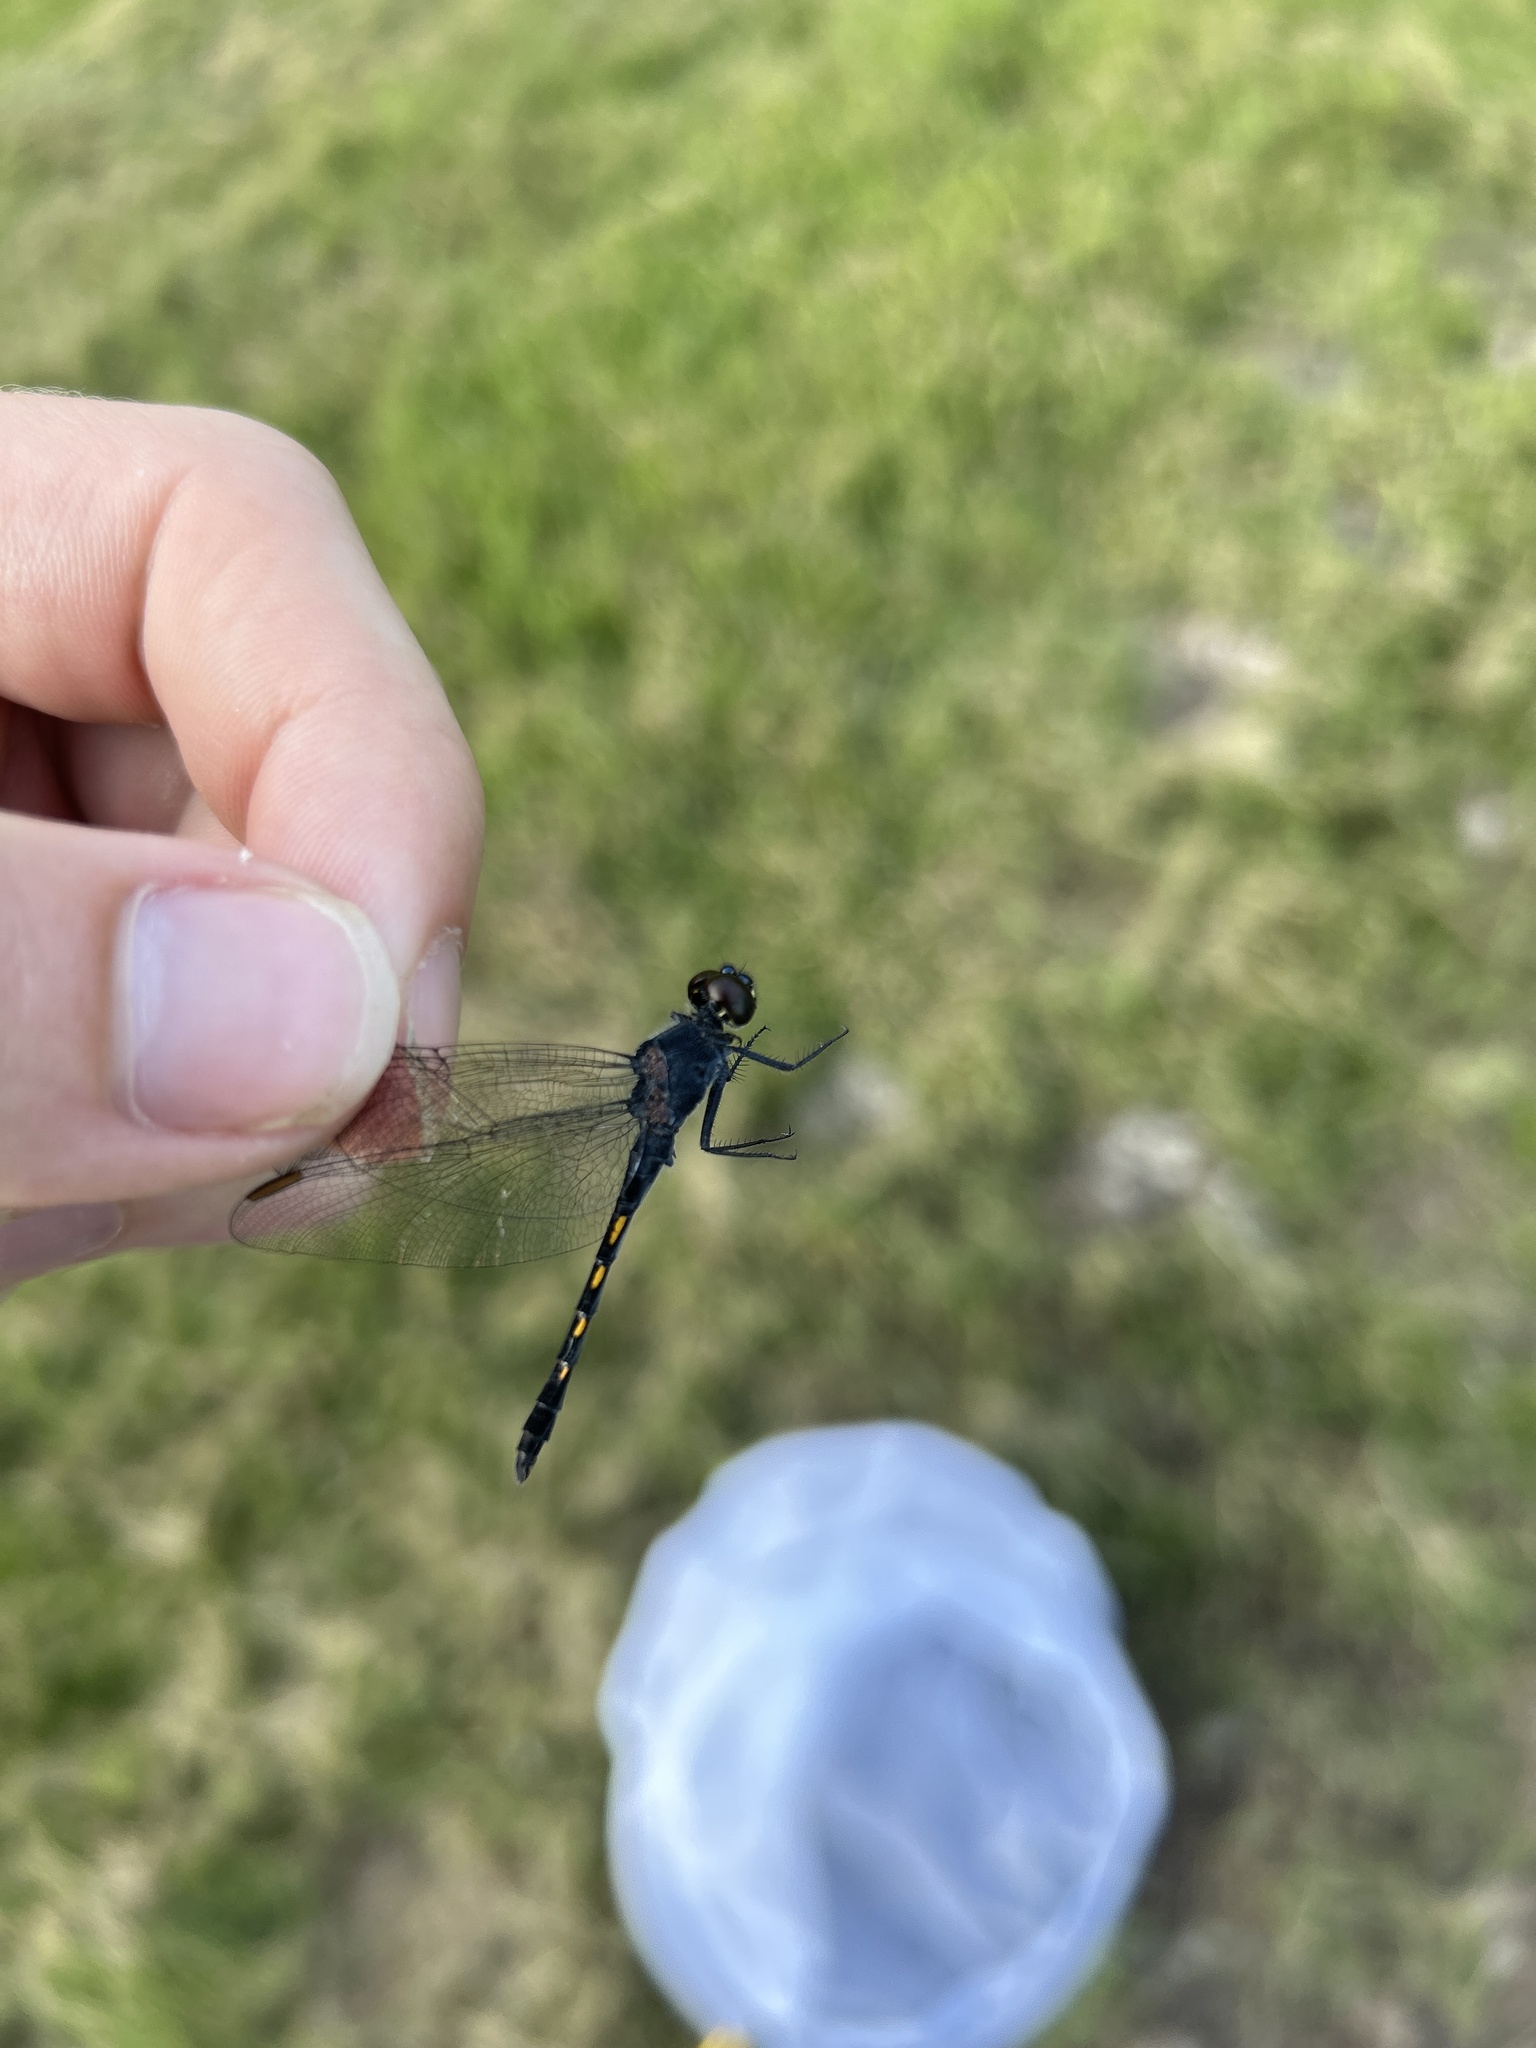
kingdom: Animalia
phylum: Arthropoda
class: Insecta
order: Odonata
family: Libellulidae
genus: Erythrodiplax
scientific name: Erythrodiplax berenice
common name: Seaside dragonlet
